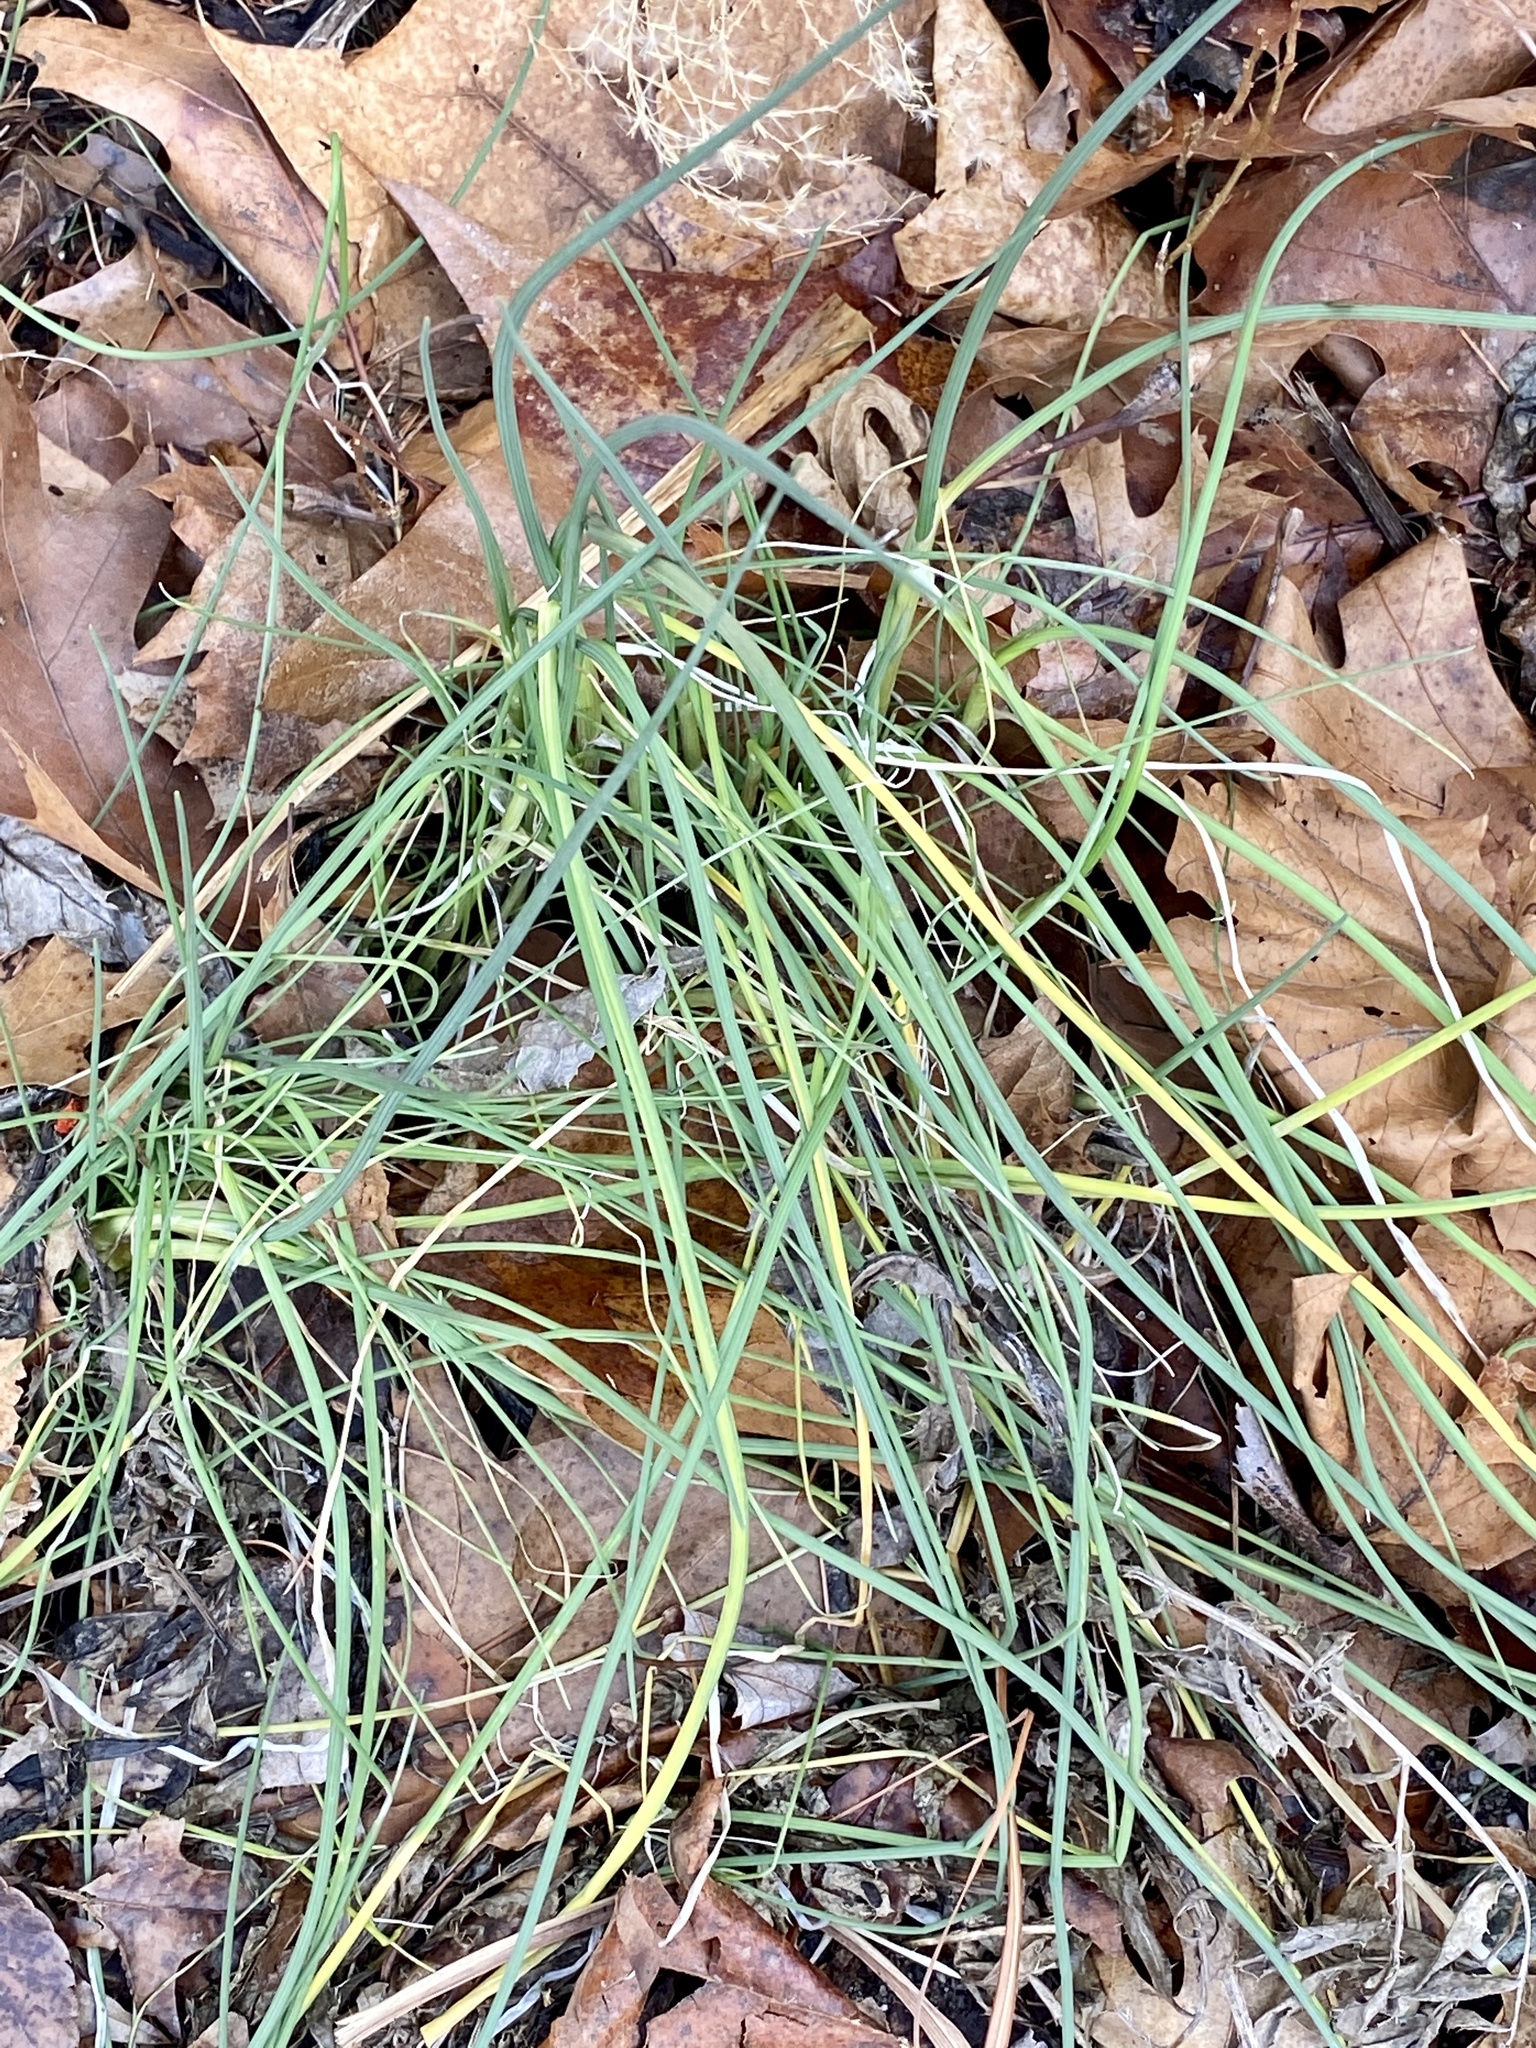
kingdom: Plantae
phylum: Tracheophyta
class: Liliopsida
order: Asparagales
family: Amaryllidaceae
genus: Allium
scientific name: Allium vineale
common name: Crow garlic
